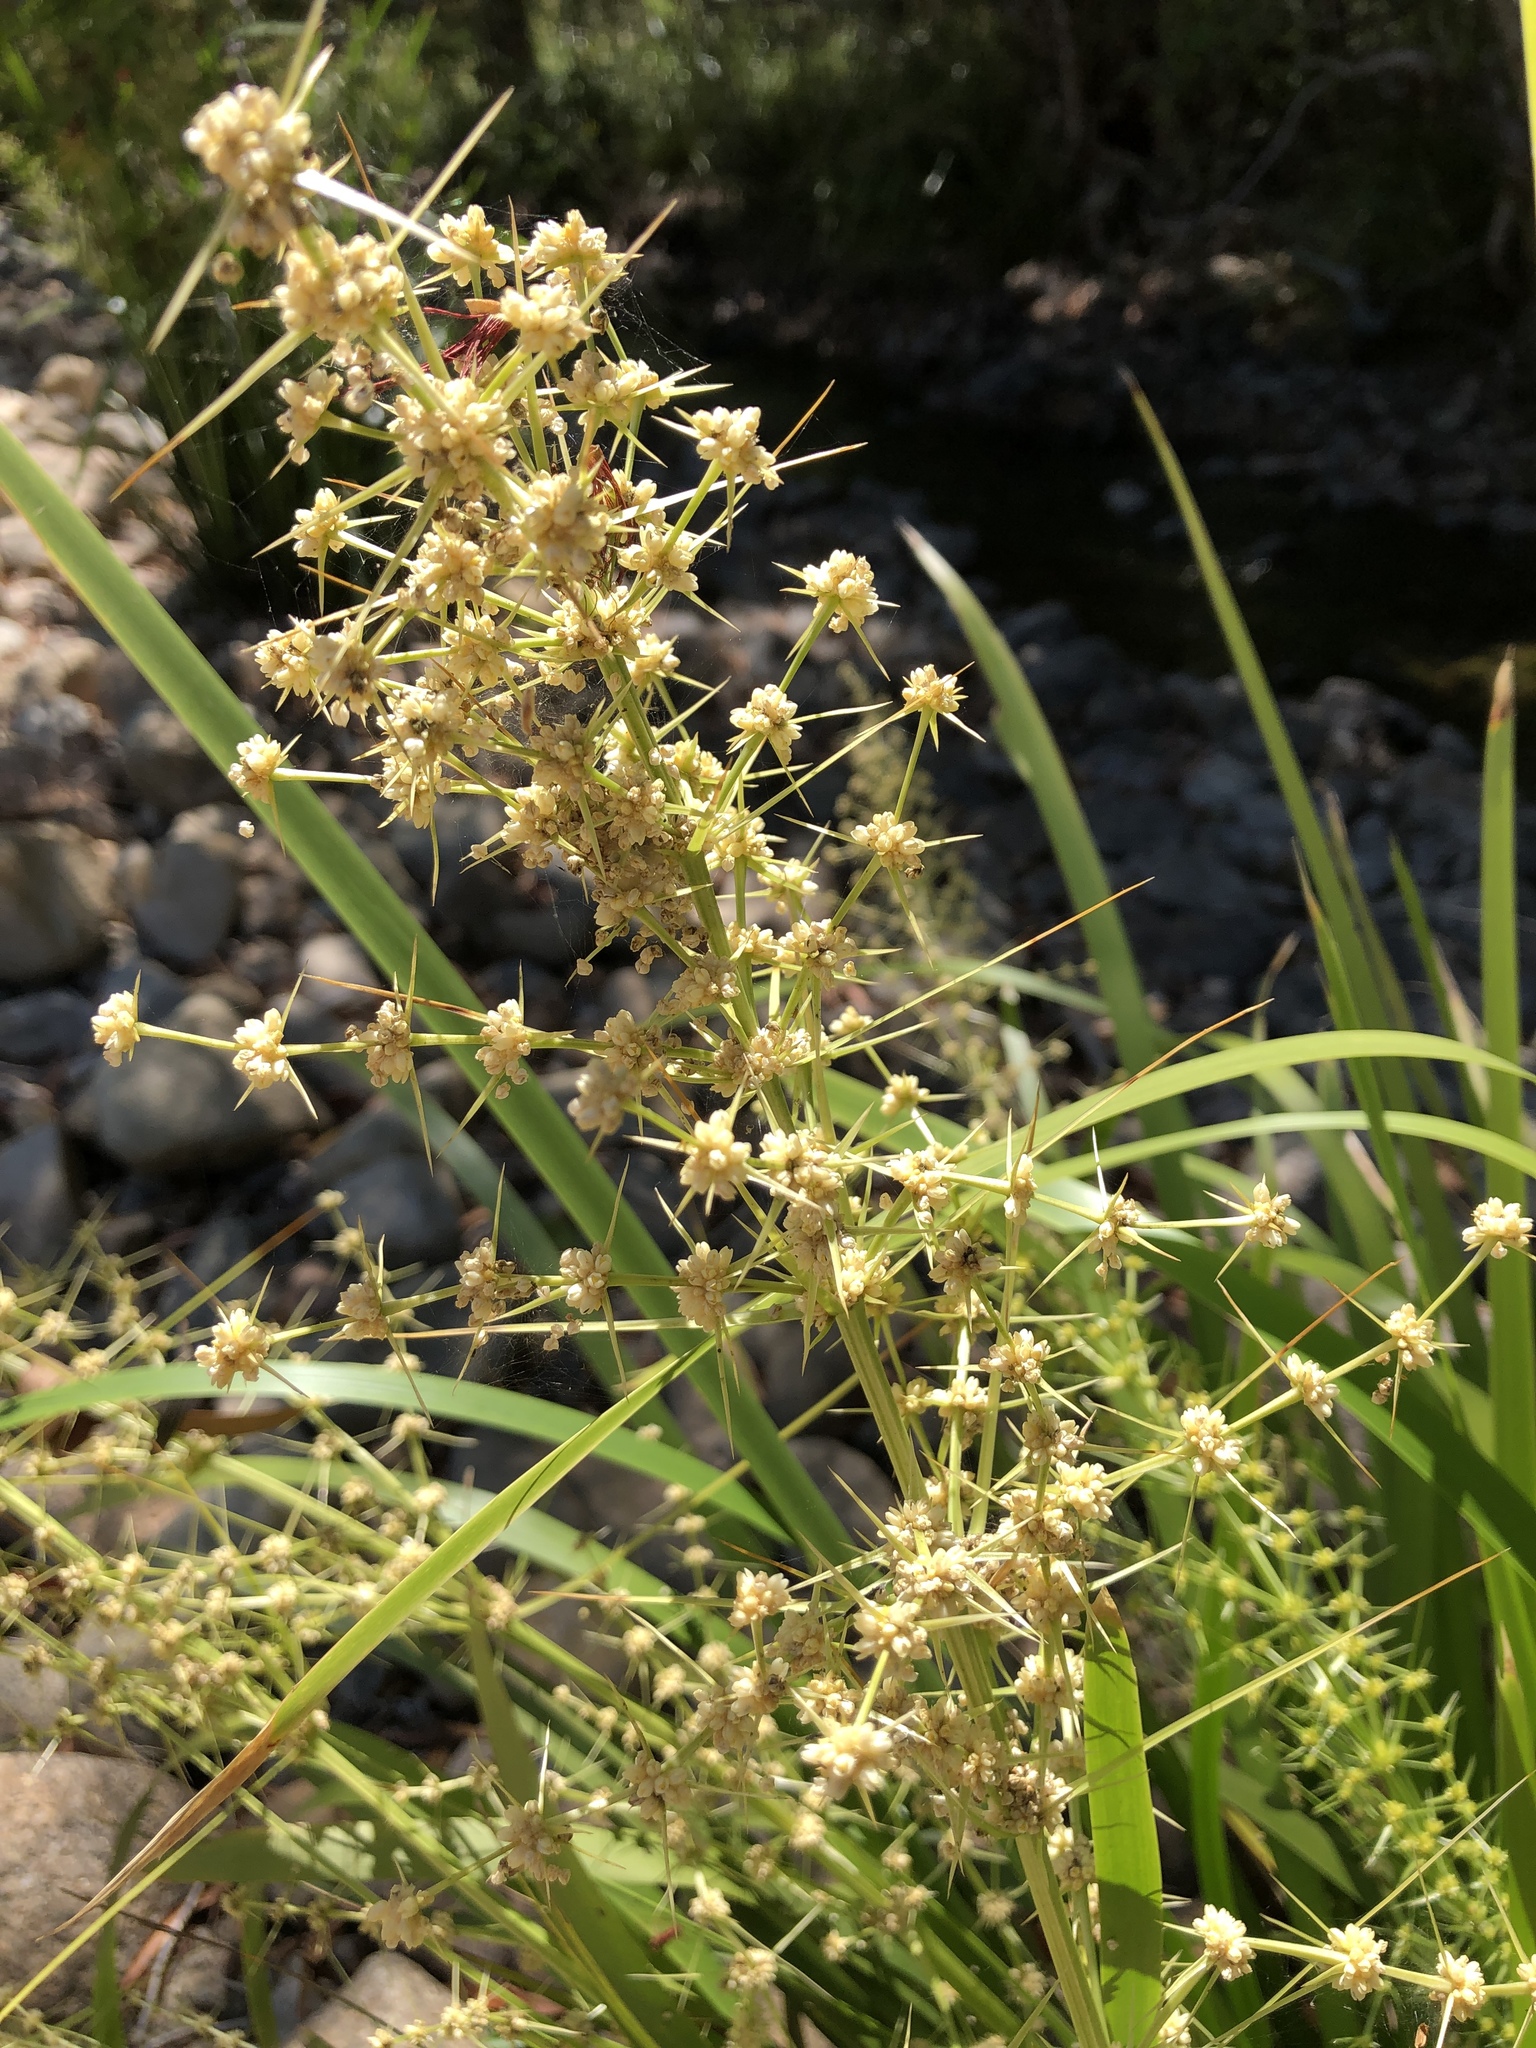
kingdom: Plantae
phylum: Tracheophyta
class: Liliopsida
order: Asparagales
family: Asparagaceae
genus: Lomandra
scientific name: Lomandra hystrix
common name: Creek mat-rush
